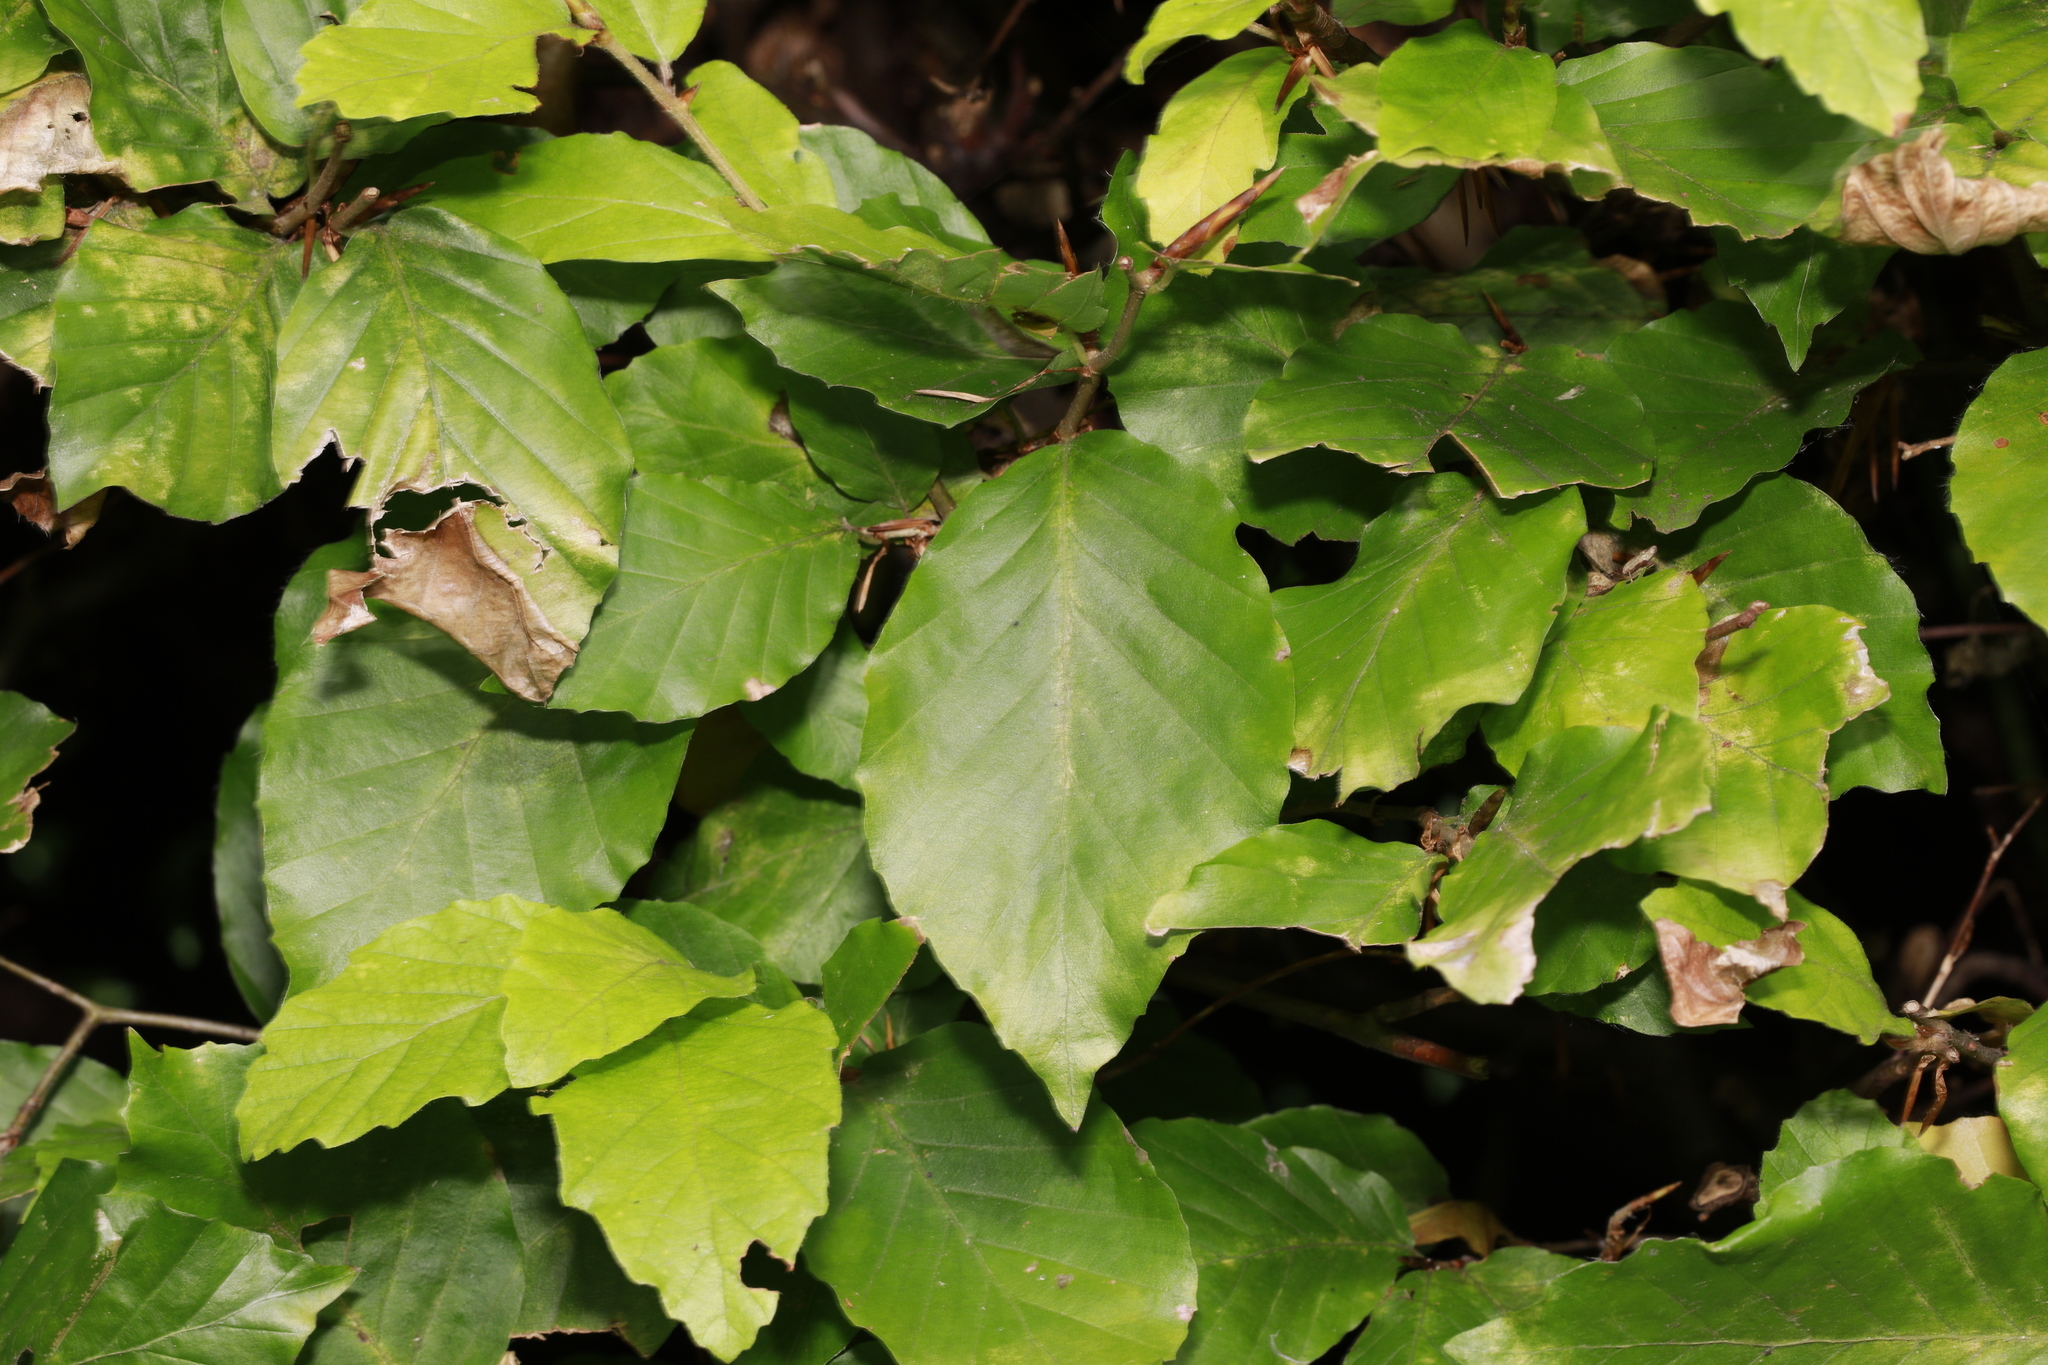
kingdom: Plantae
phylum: Tracheophyta
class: Magnoliopsida
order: Fagales
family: Fagaceae
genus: Fagus
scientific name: Fagus sylvatica
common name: Beech
